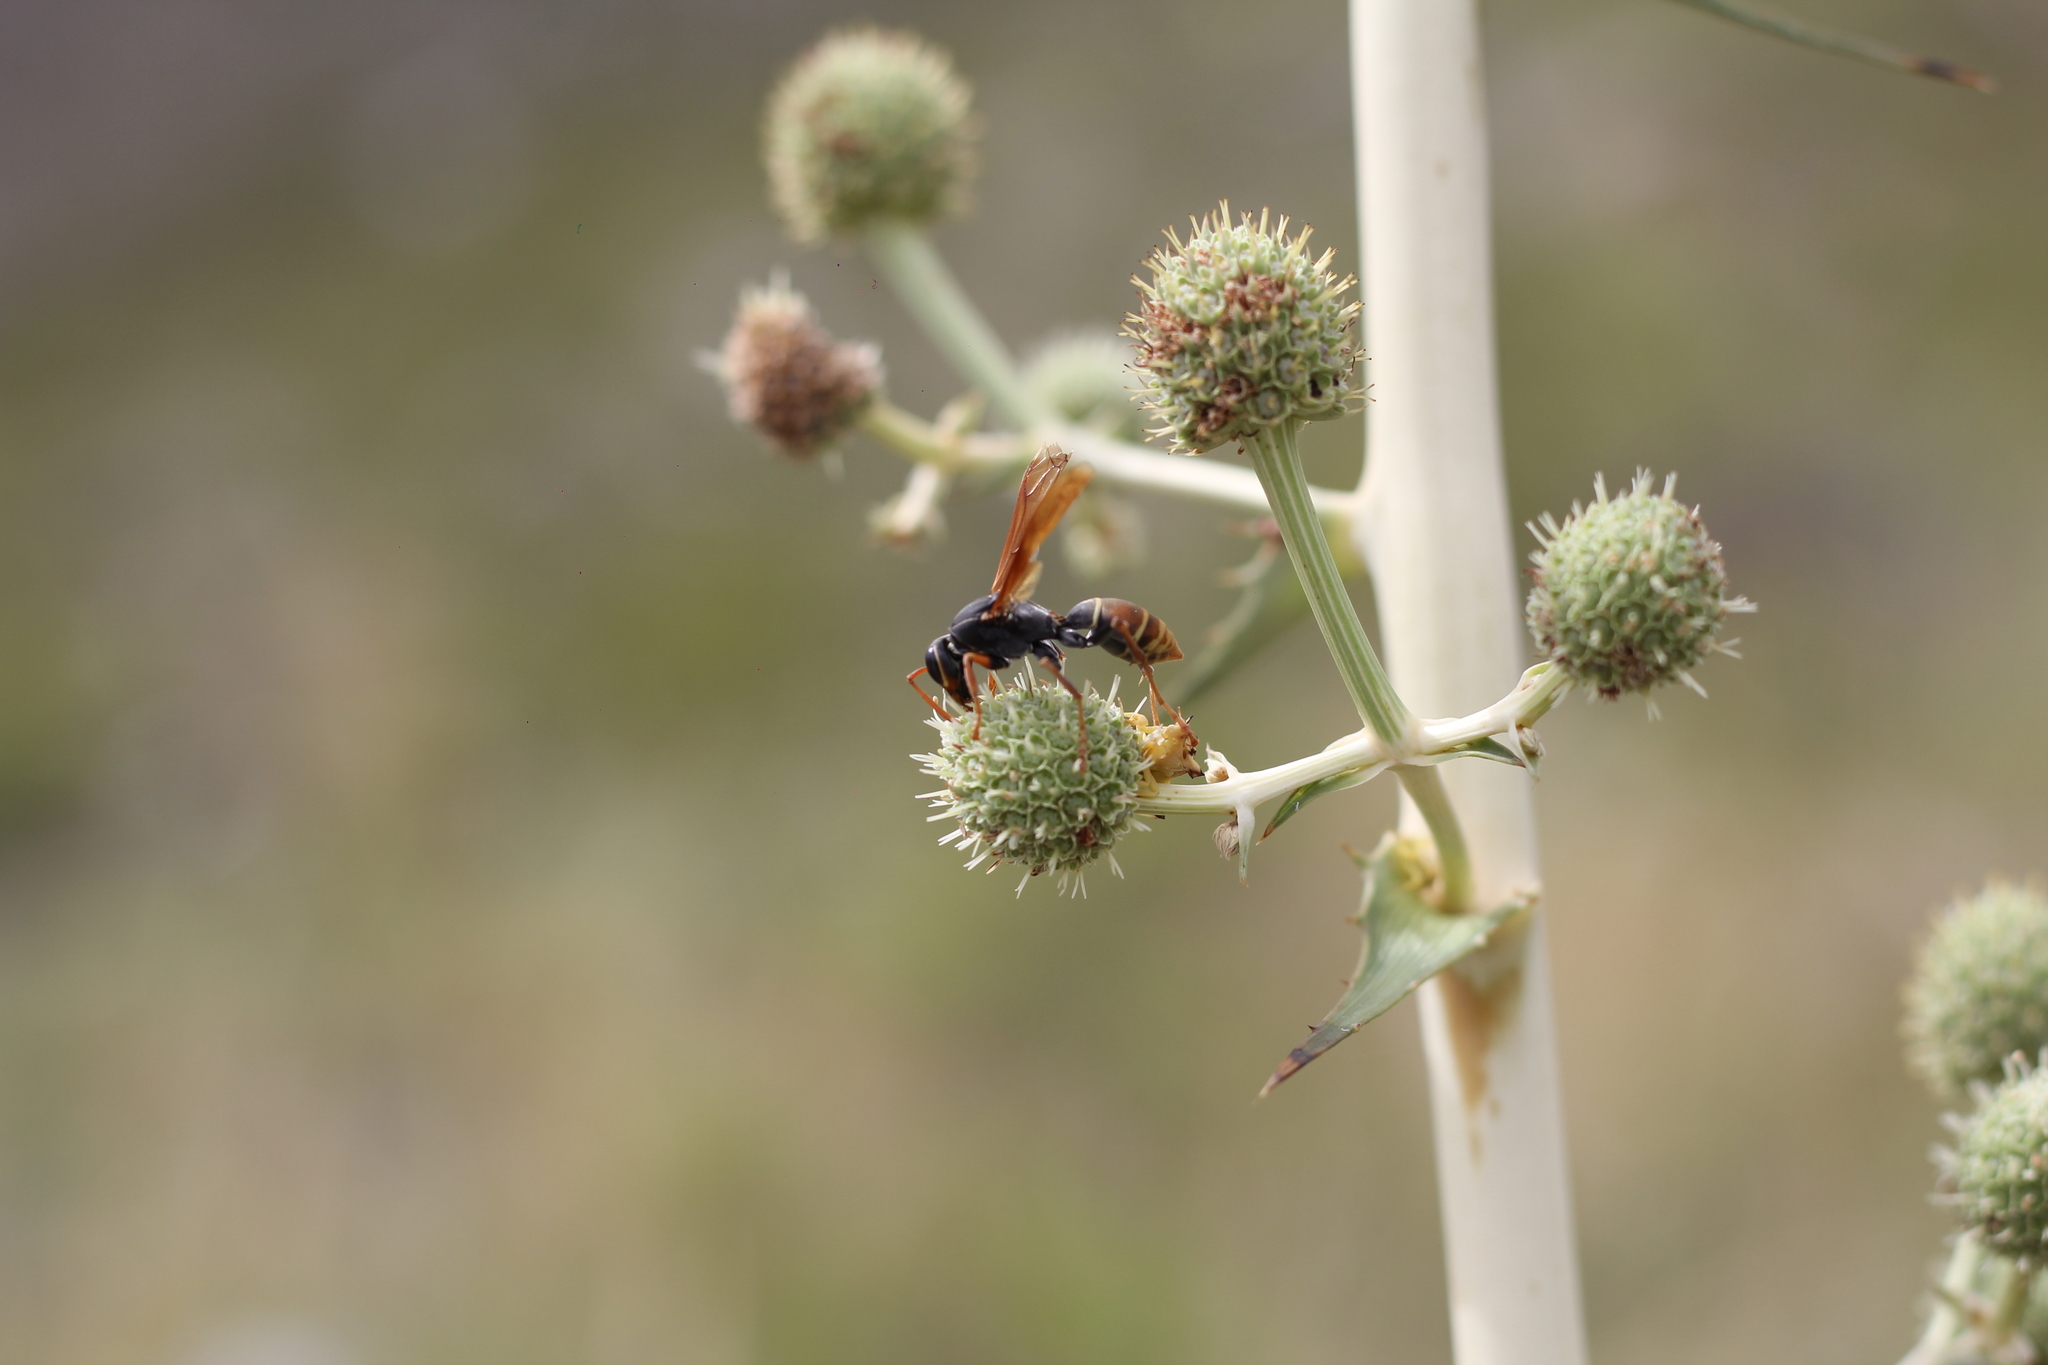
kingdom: Animalia
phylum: Arthropoda
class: Insecta
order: Hymenoptera
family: Eumenidae
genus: Polistes
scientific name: Polistes billardieri
